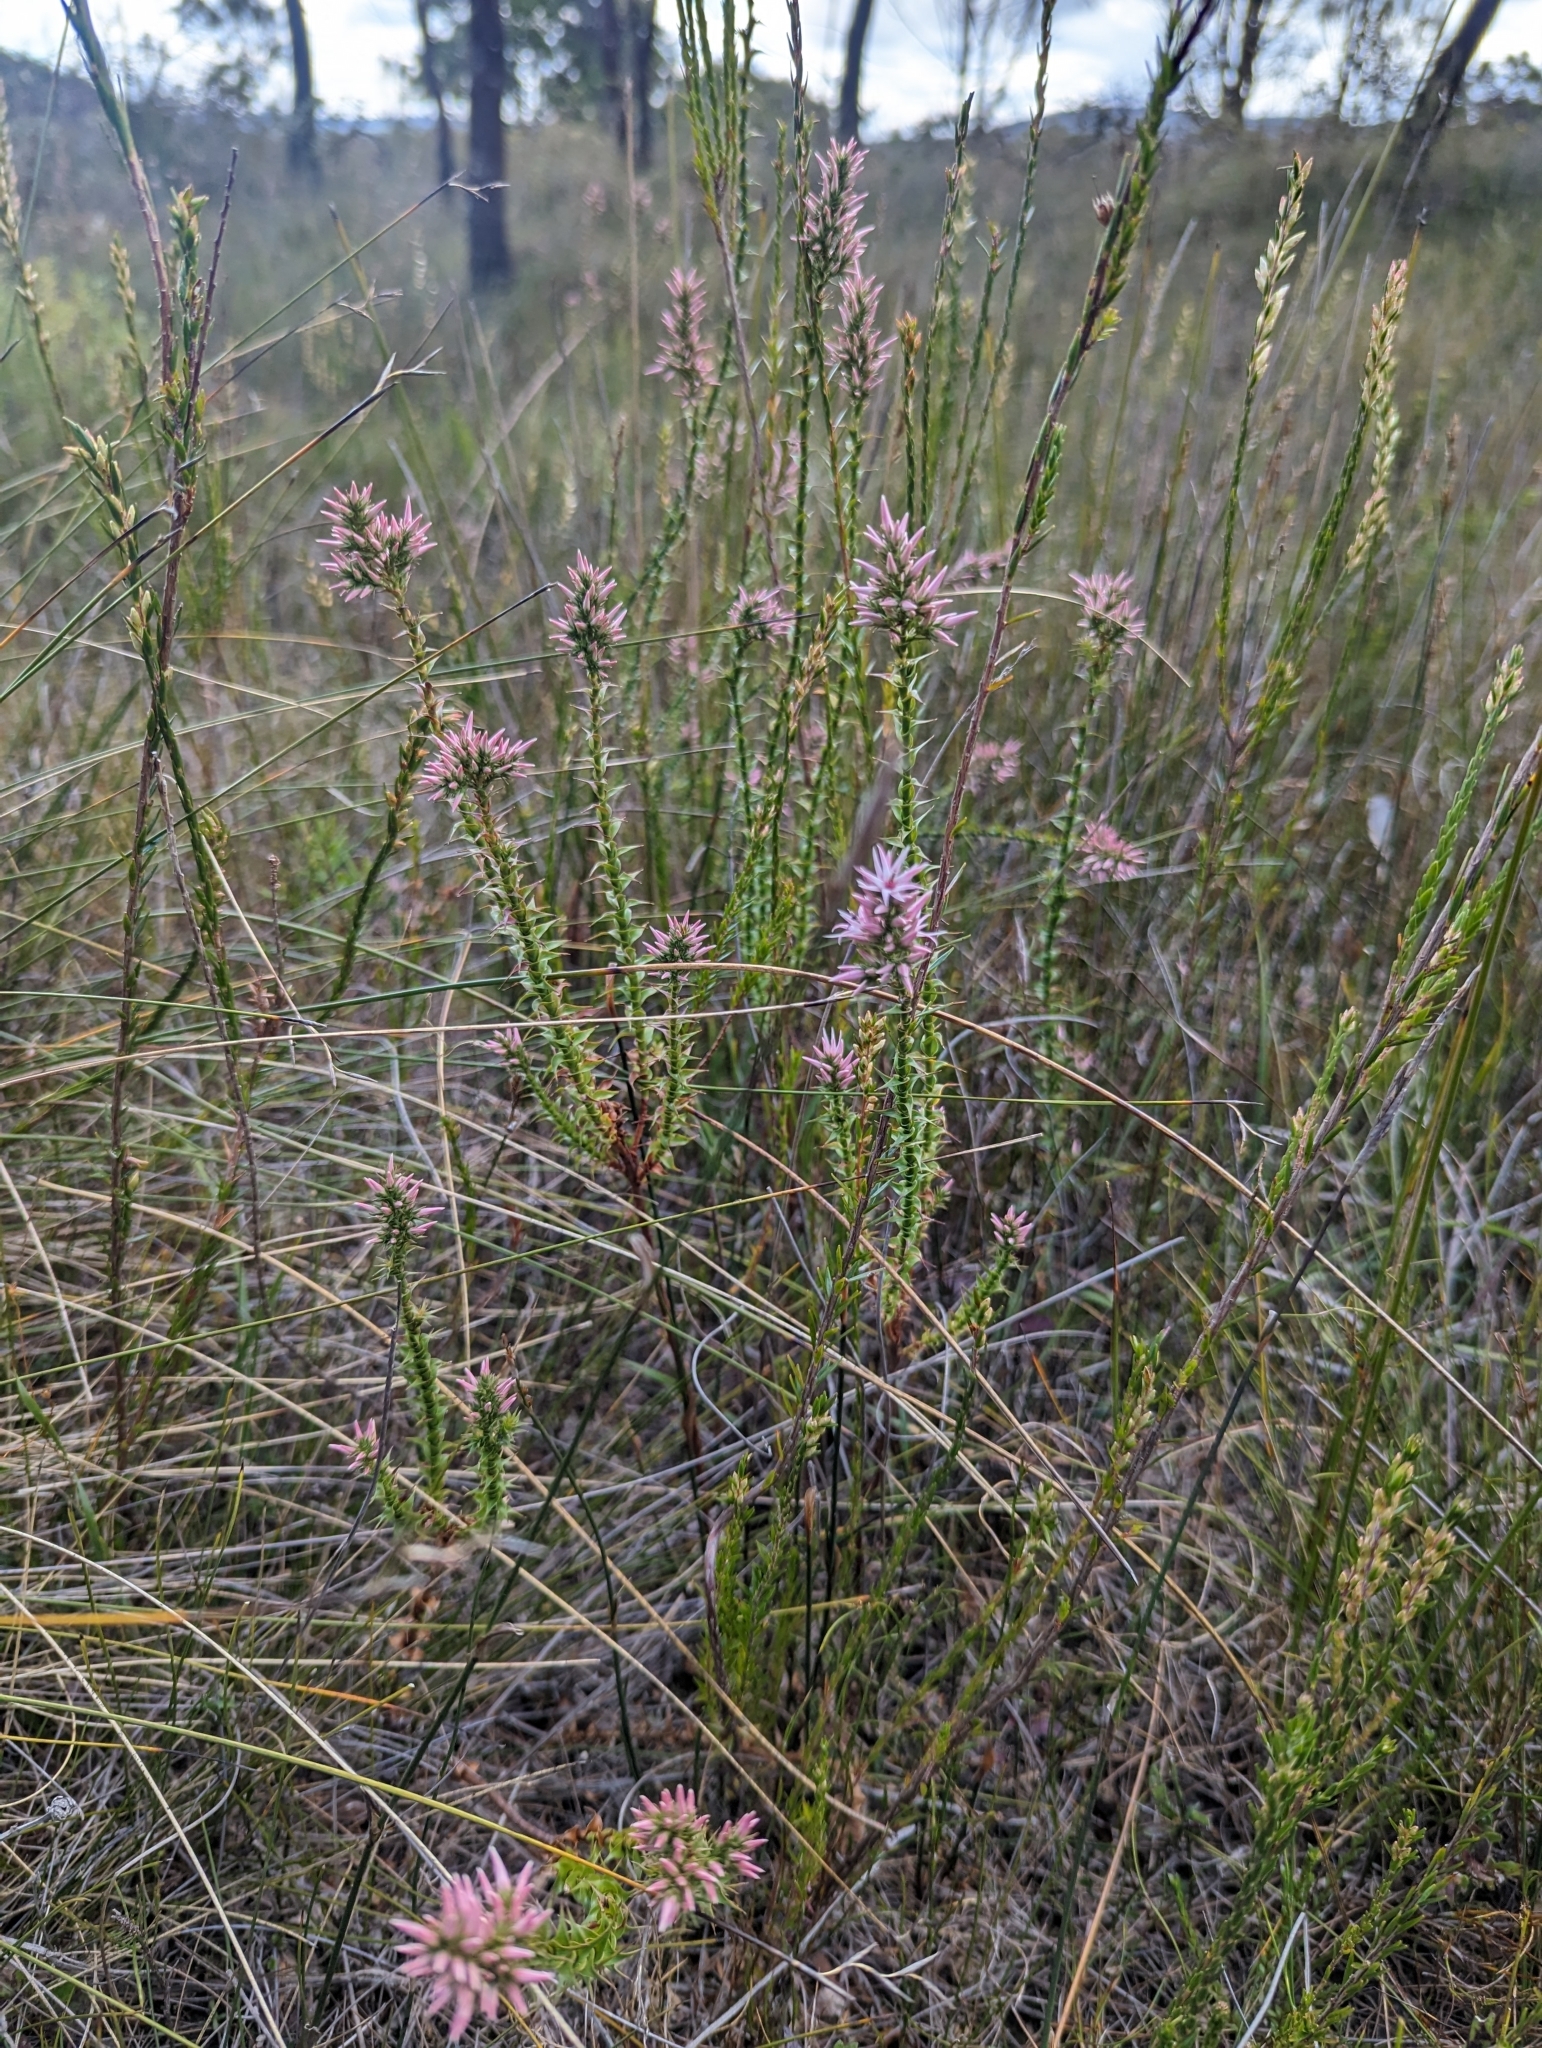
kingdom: Plantae
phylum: Tracheophyta
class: Magnoliopsida
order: Ericales
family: Ericaceae
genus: Sprengelia
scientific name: Sprengelia incarnata
